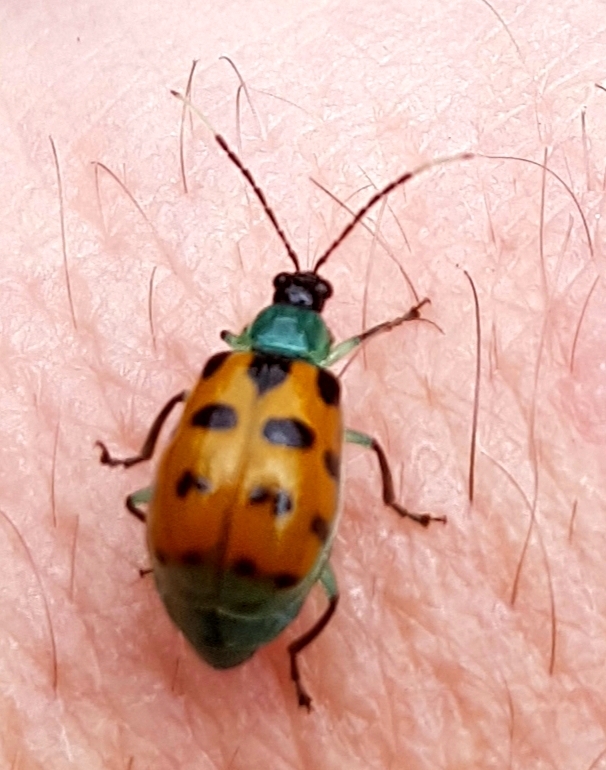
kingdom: Animalia
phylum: Arthropoda
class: Insecta
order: Coleoptera
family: Chrysomelidae
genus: Diabrotica
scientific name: Diabrotica limitata
